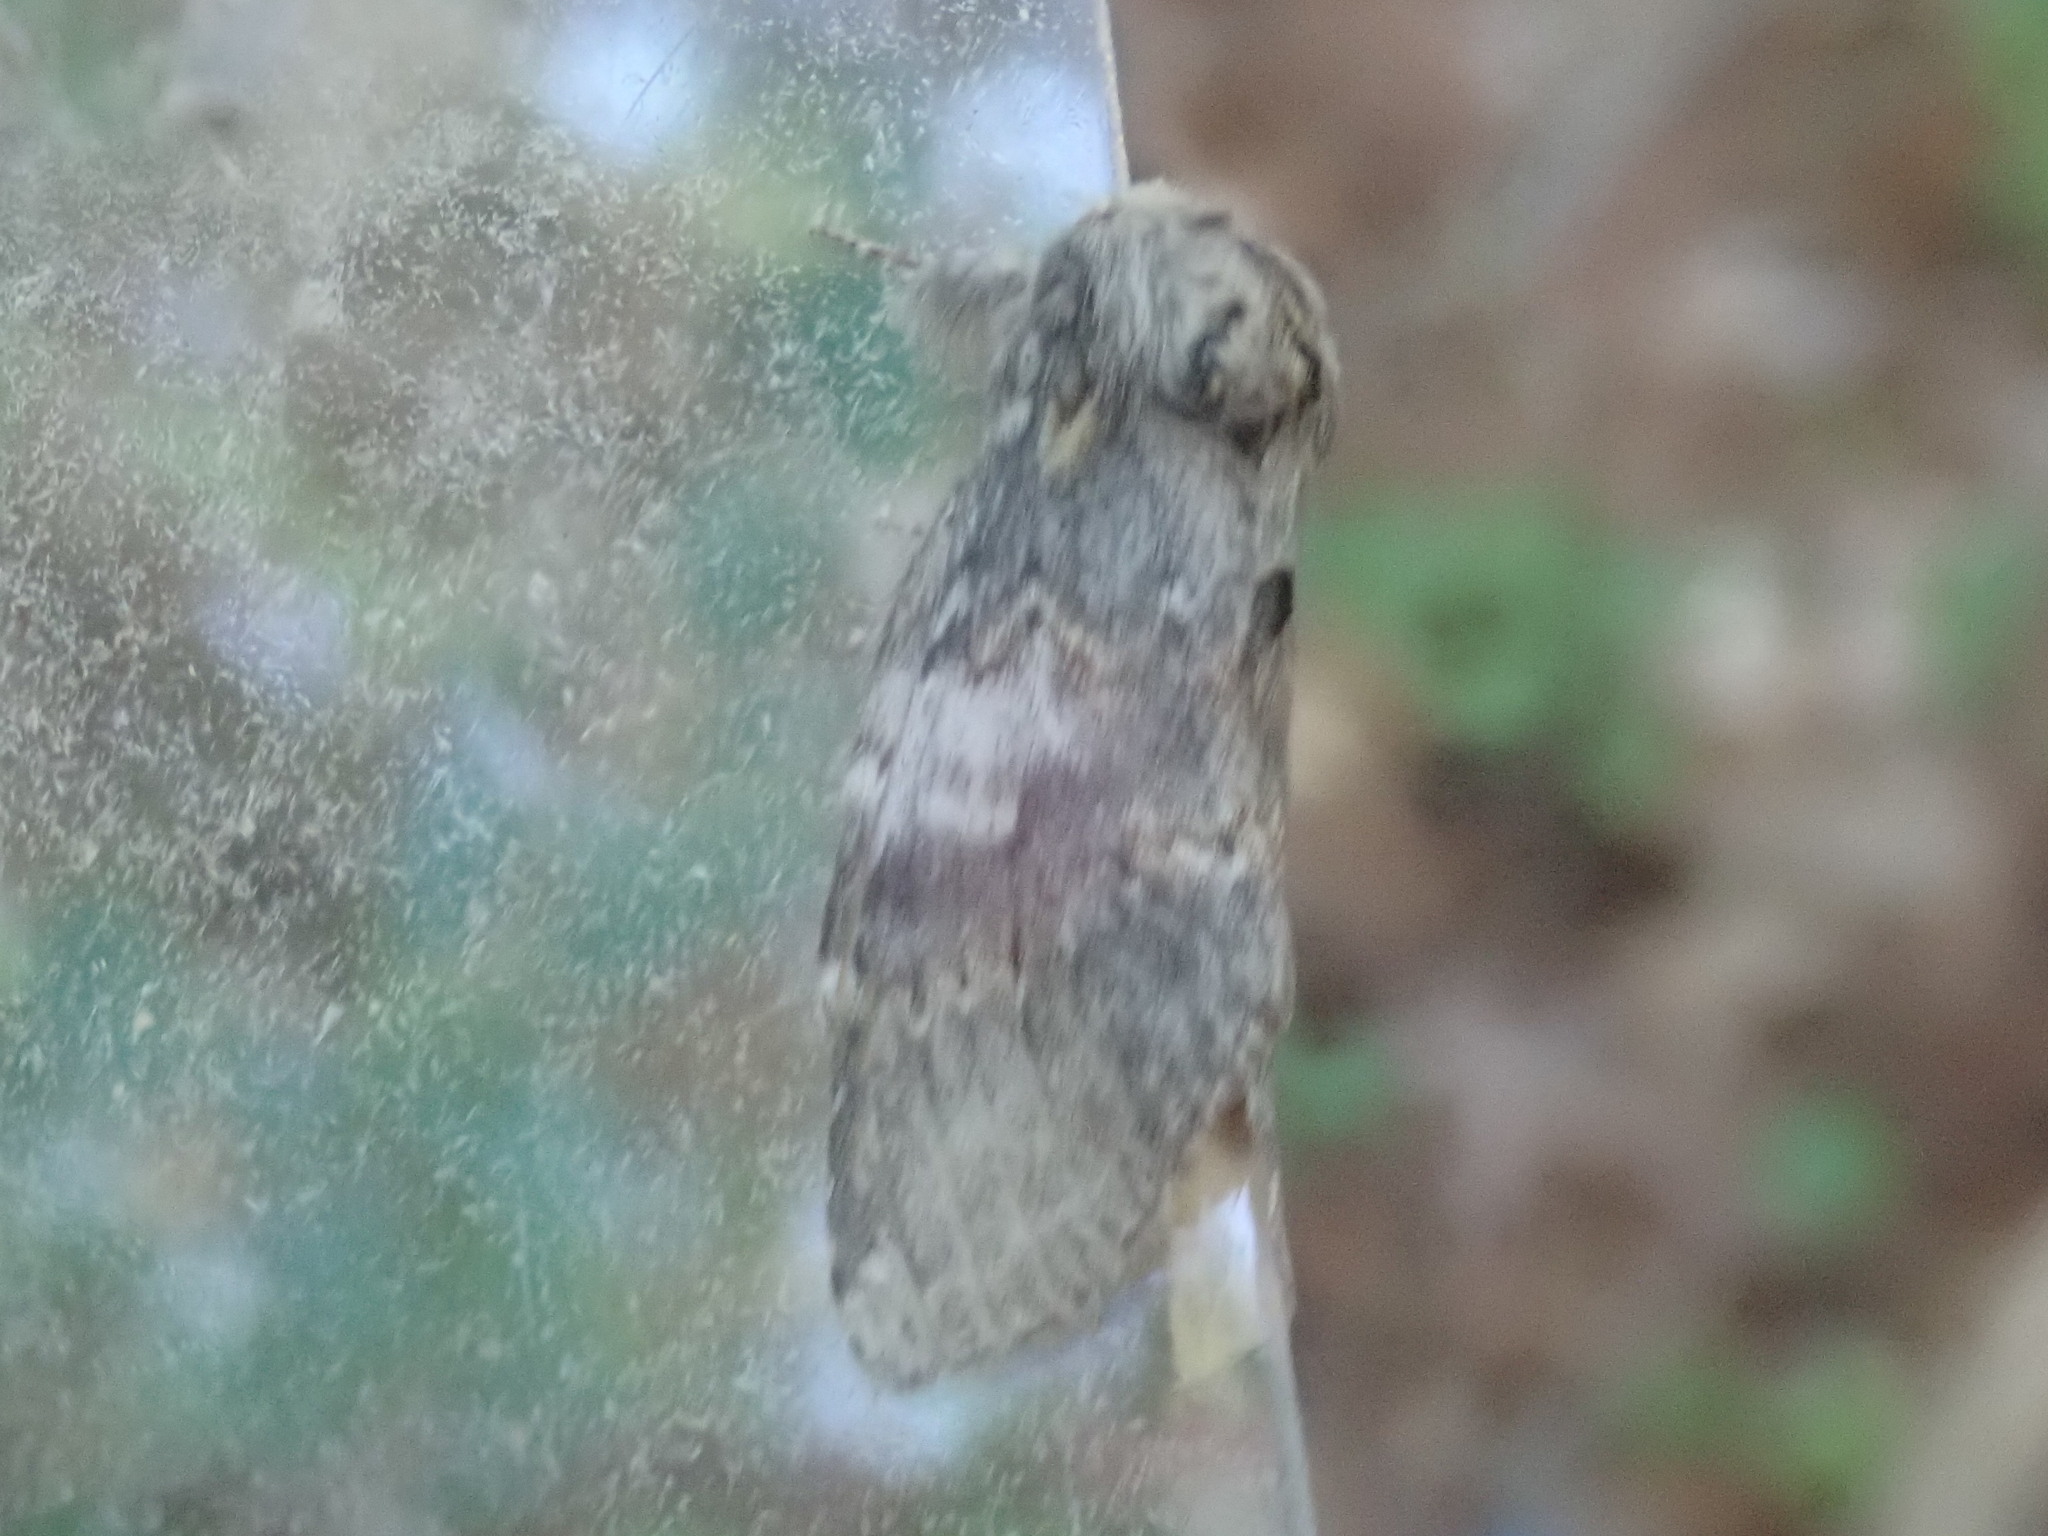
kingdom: Animalia
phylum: Arthropoda
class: Insecta
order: Lepidoptera
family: Notodontidae
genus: Peridea
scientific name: Peridea angulosa
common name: Angulose prominent
